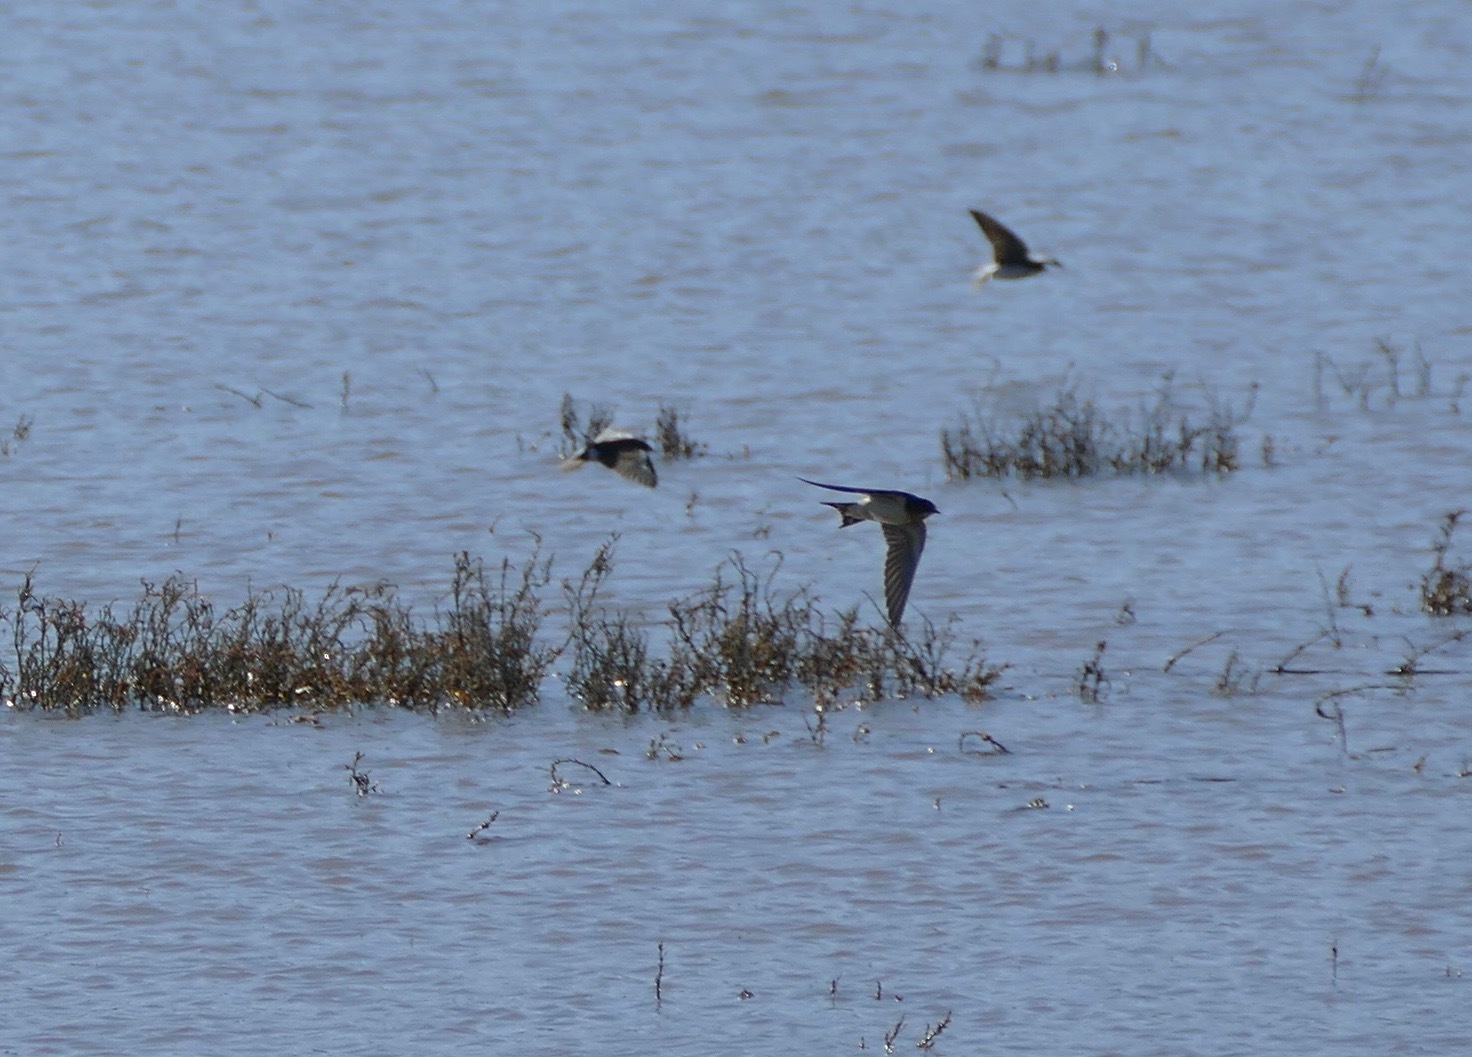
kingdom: Animalia
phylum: Chordata
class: Aves
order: Passeriformes
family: Hirundinidae
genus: Hirundo
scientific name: Hirundo rustica
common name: Barn swallow
